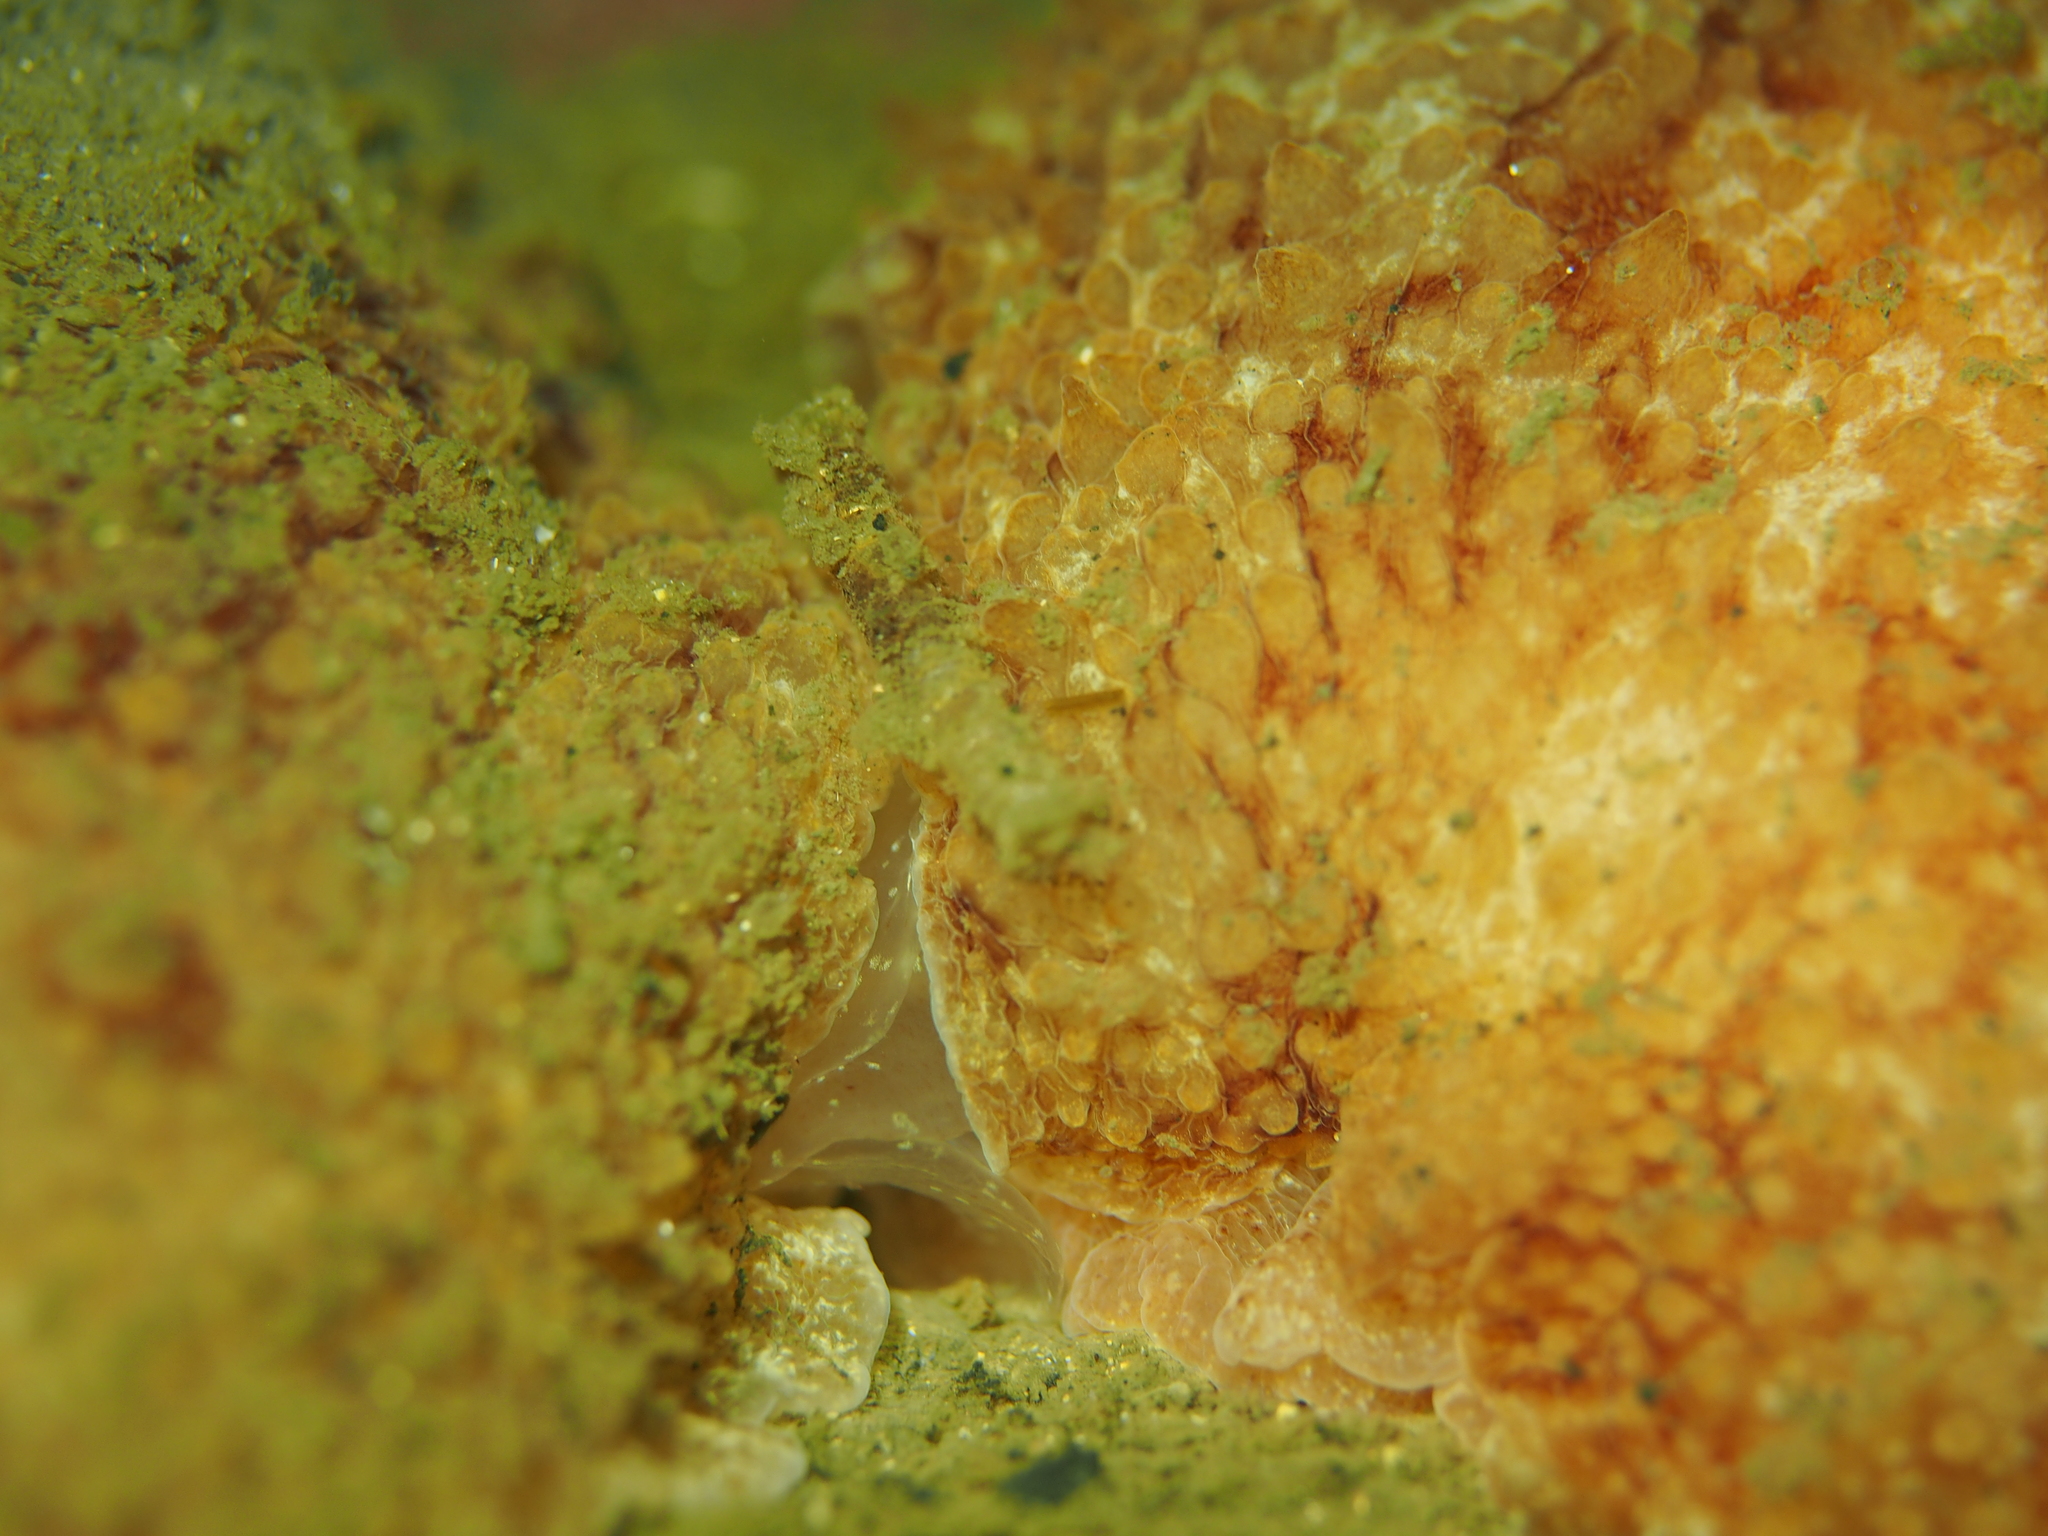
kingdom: Animalia
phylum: Mollusca
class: Gastropoda
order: Pleurobranchida
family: Pleurobranchidae
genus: Pleurobranchus
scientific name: Pleurobranchus membranaceus
